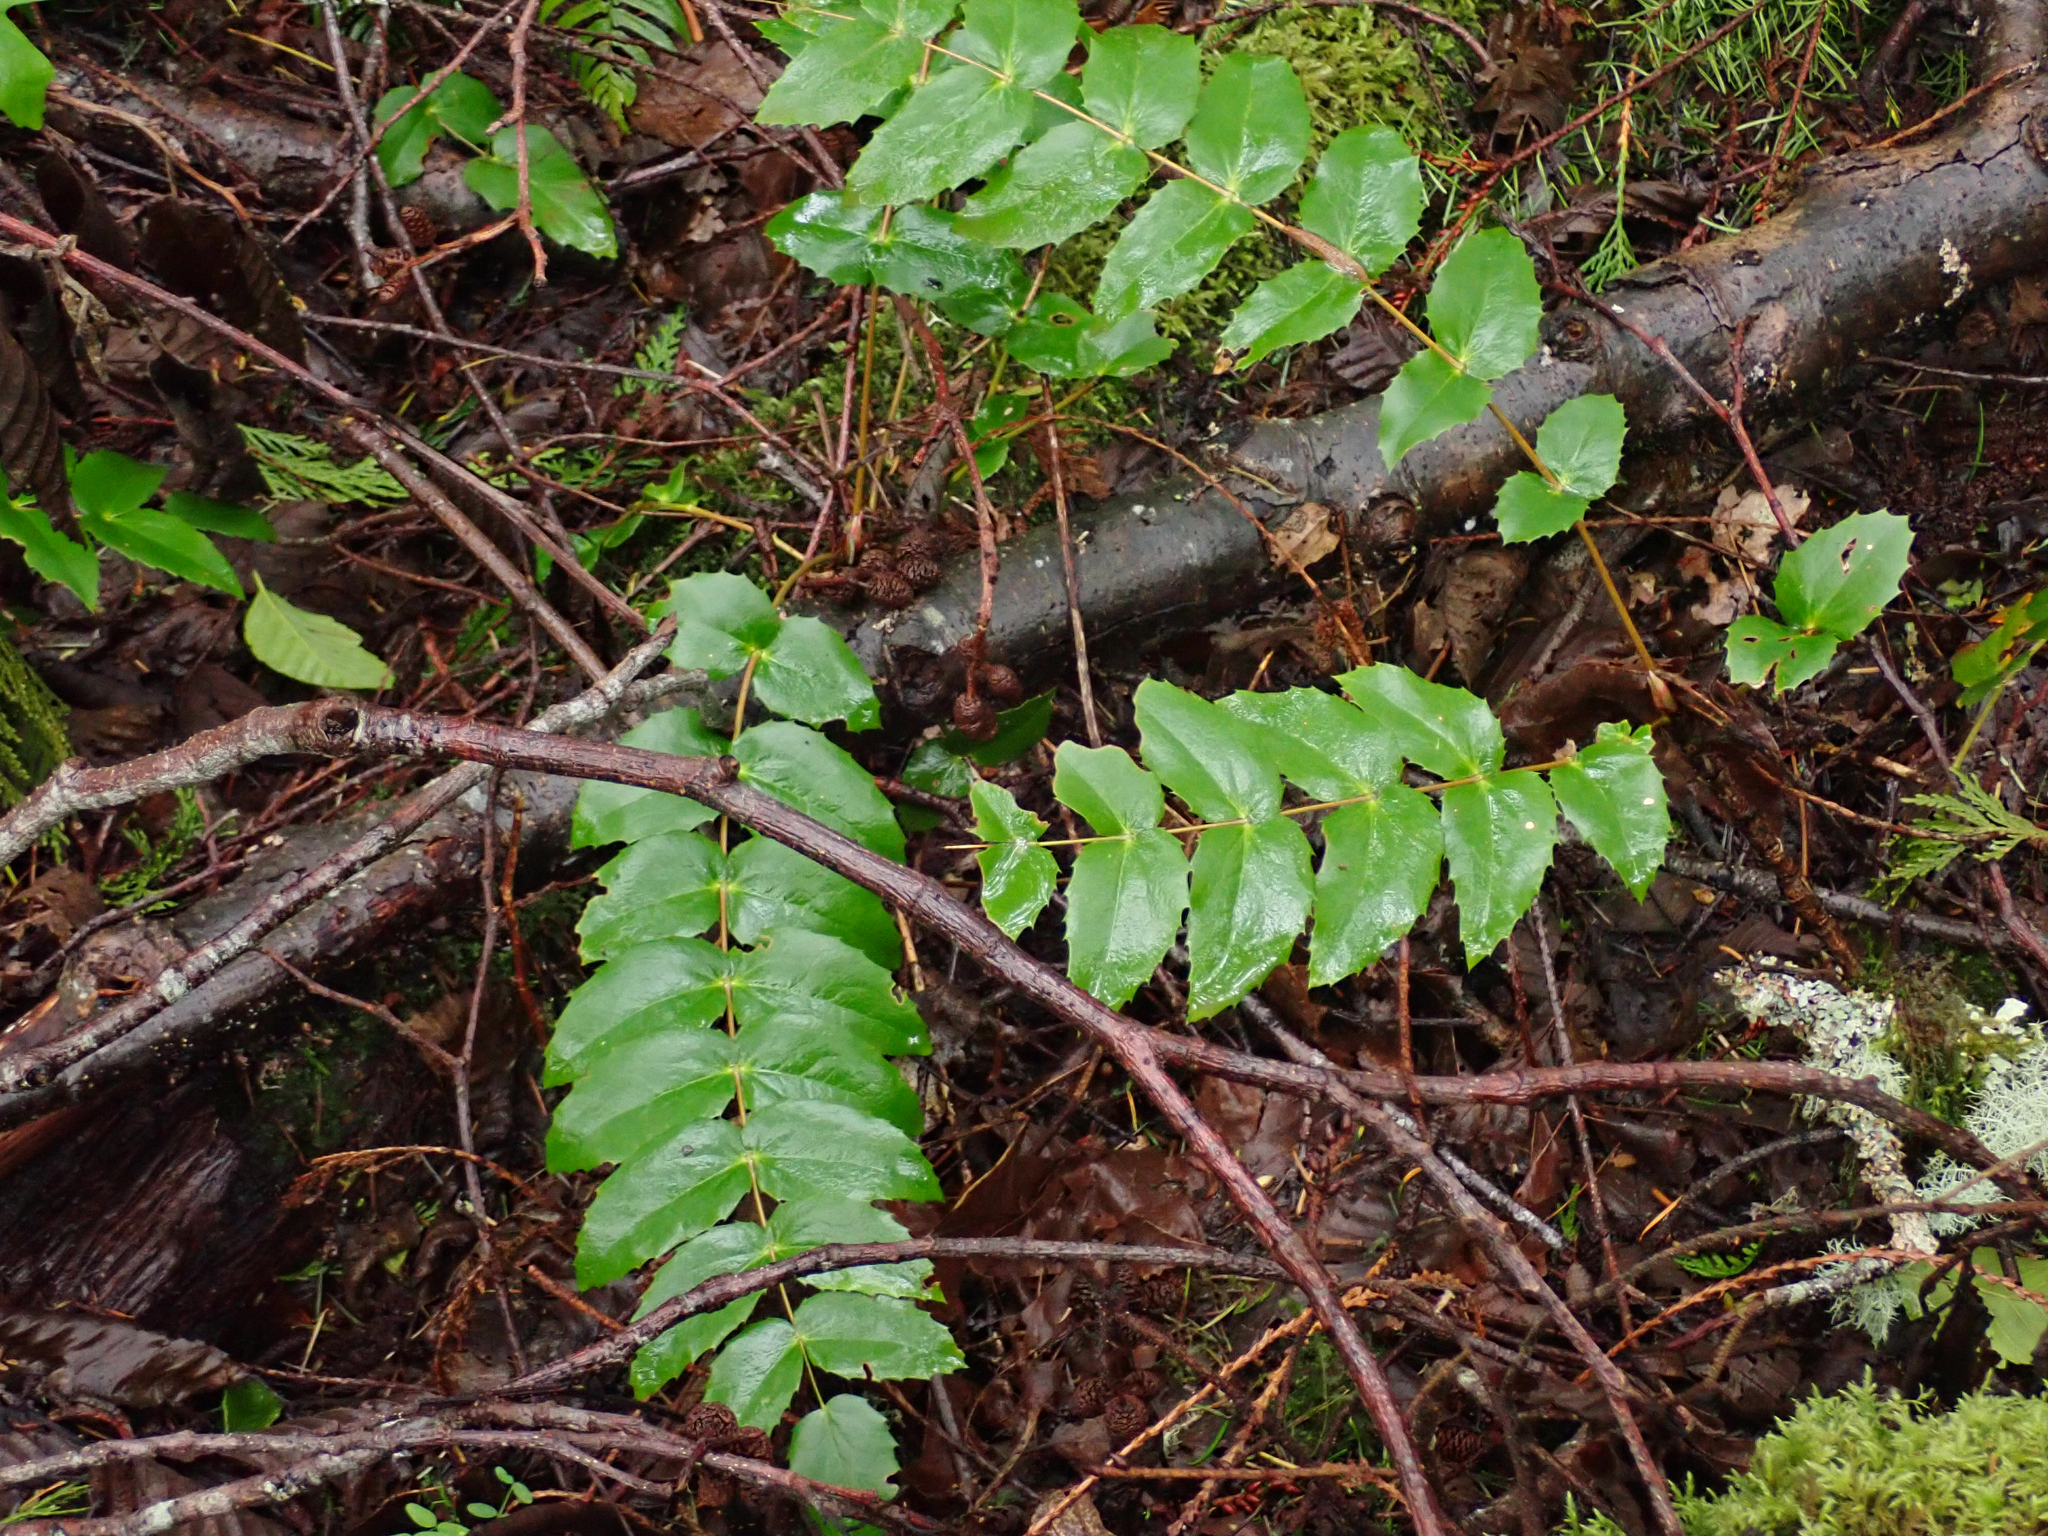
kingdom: Plantae
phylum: Tracheophyta
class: Magnoliopsida
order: Ranunculales
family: Berberidaceae
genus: Mahonia
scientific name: Mahonia nervosa
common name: Cascade oregon-grape
